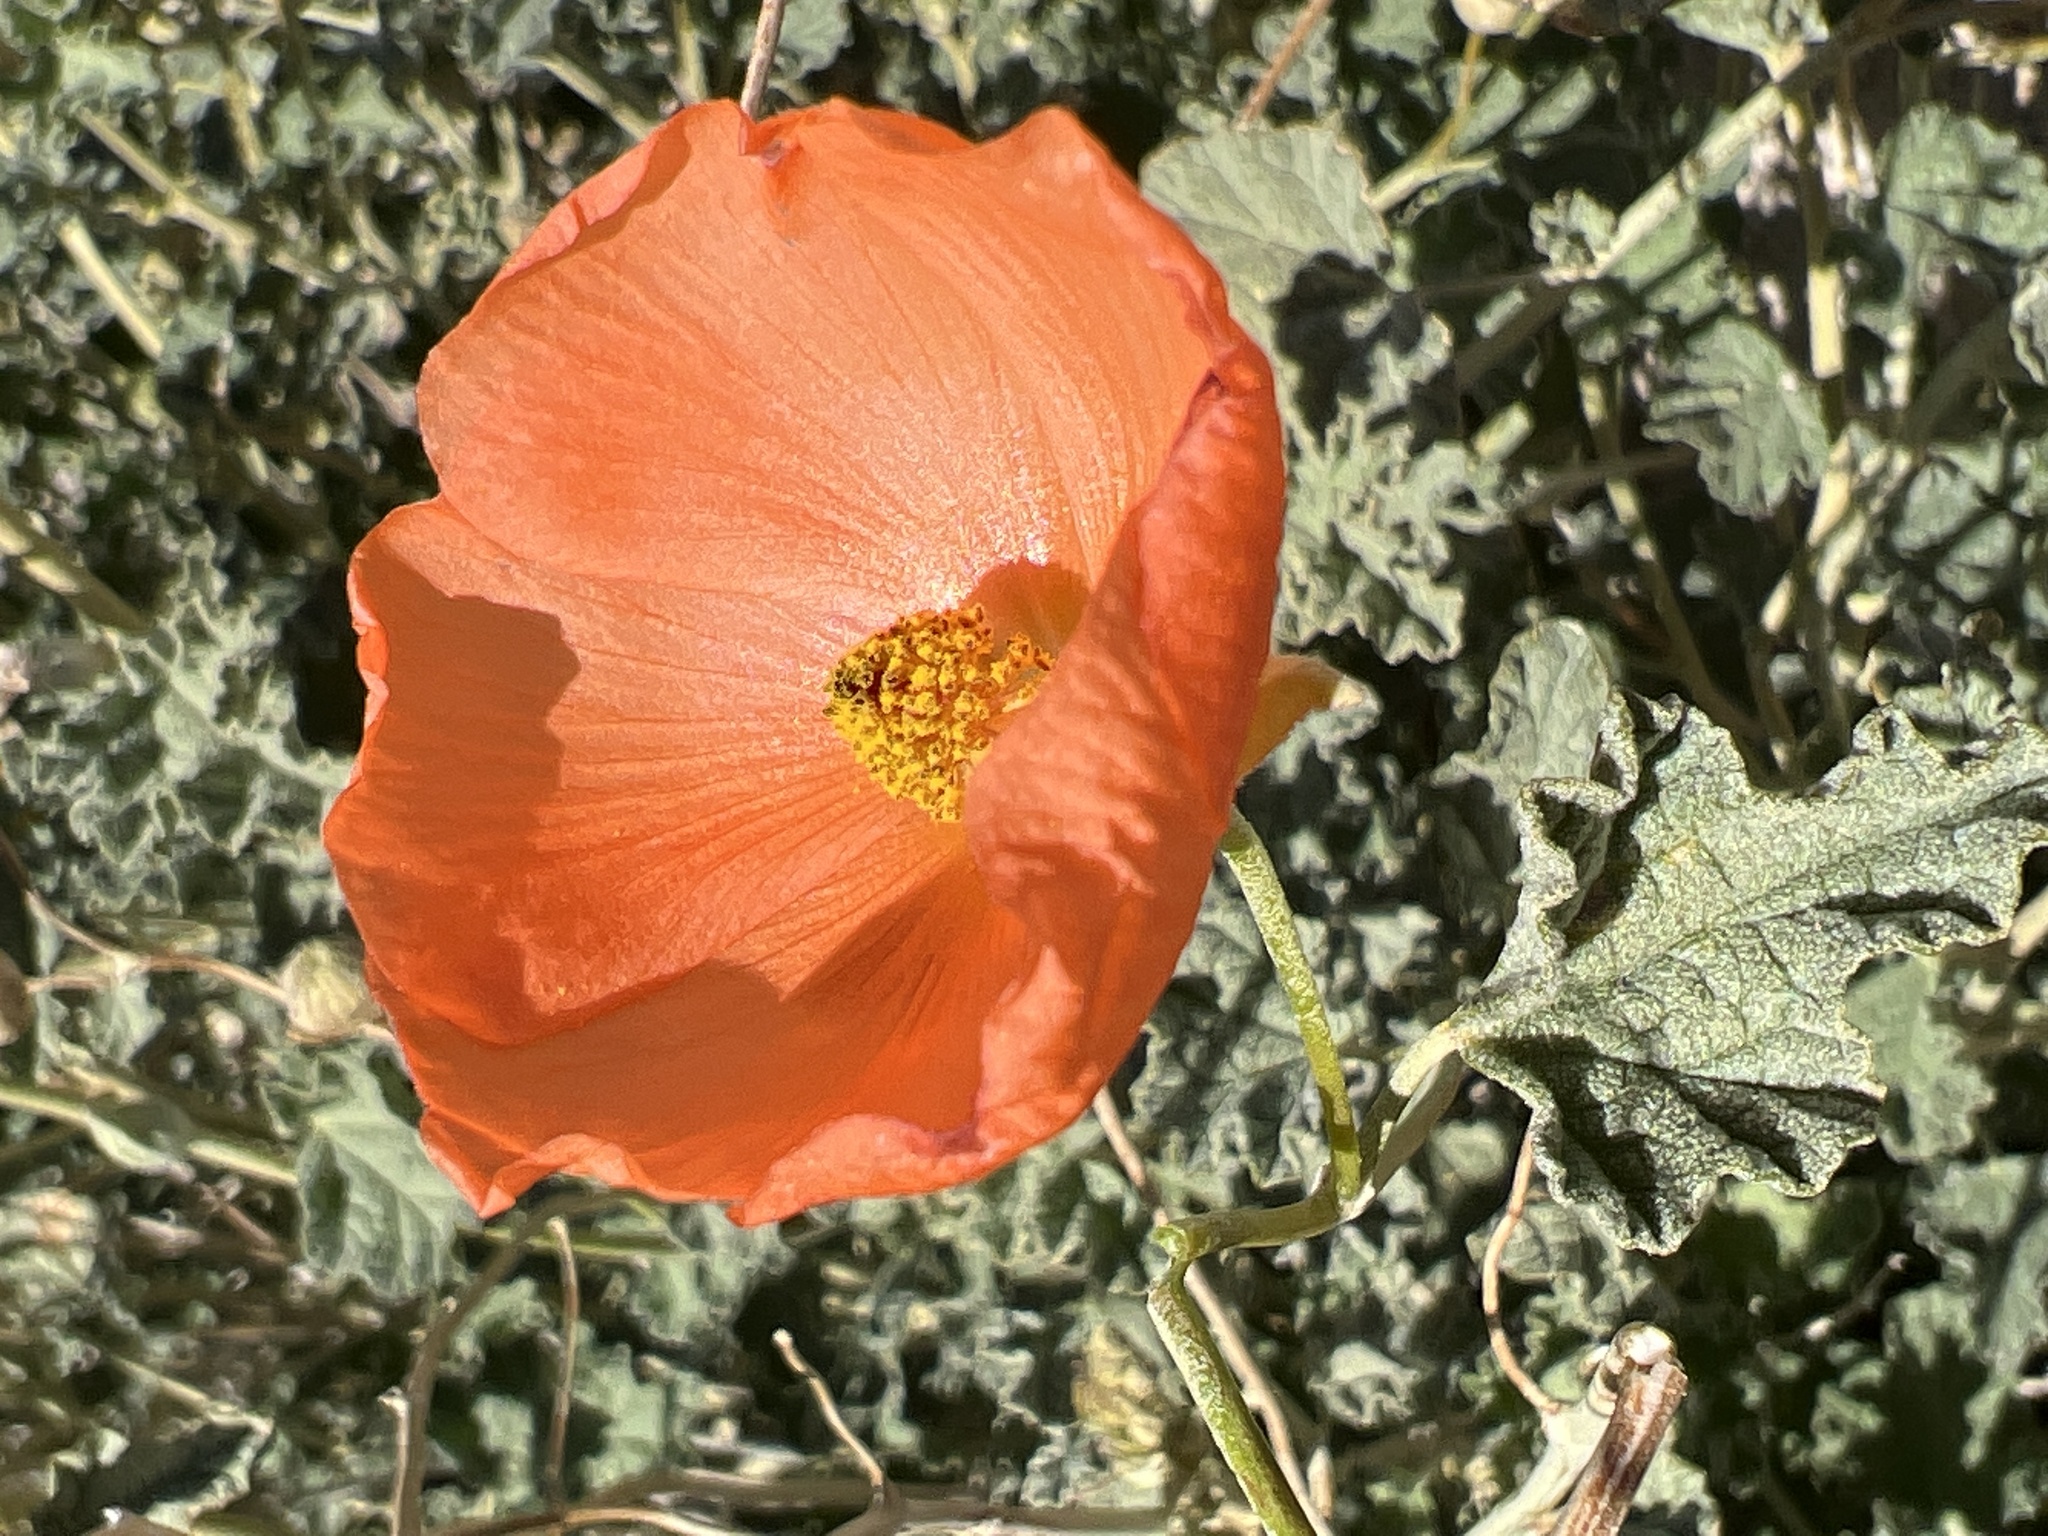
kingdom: Plantae
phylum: Tracheophyta
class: Magnoliopsida
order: Malvales
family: Malvaceae
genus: Sphaeralcea
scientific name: Sphaeralcea ambigua
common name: Apricot globe-mallow
